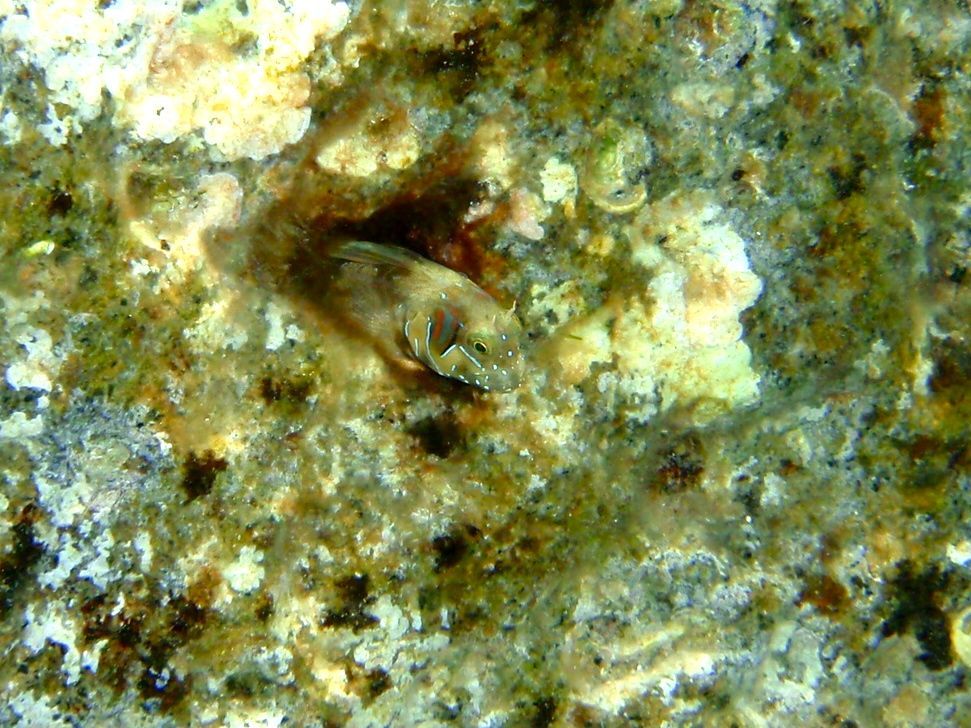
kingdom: Animalia
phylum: Chordata
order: Perciformes
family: Blenniidae
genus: Aidablennius
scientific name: Aidablennius sphynx
